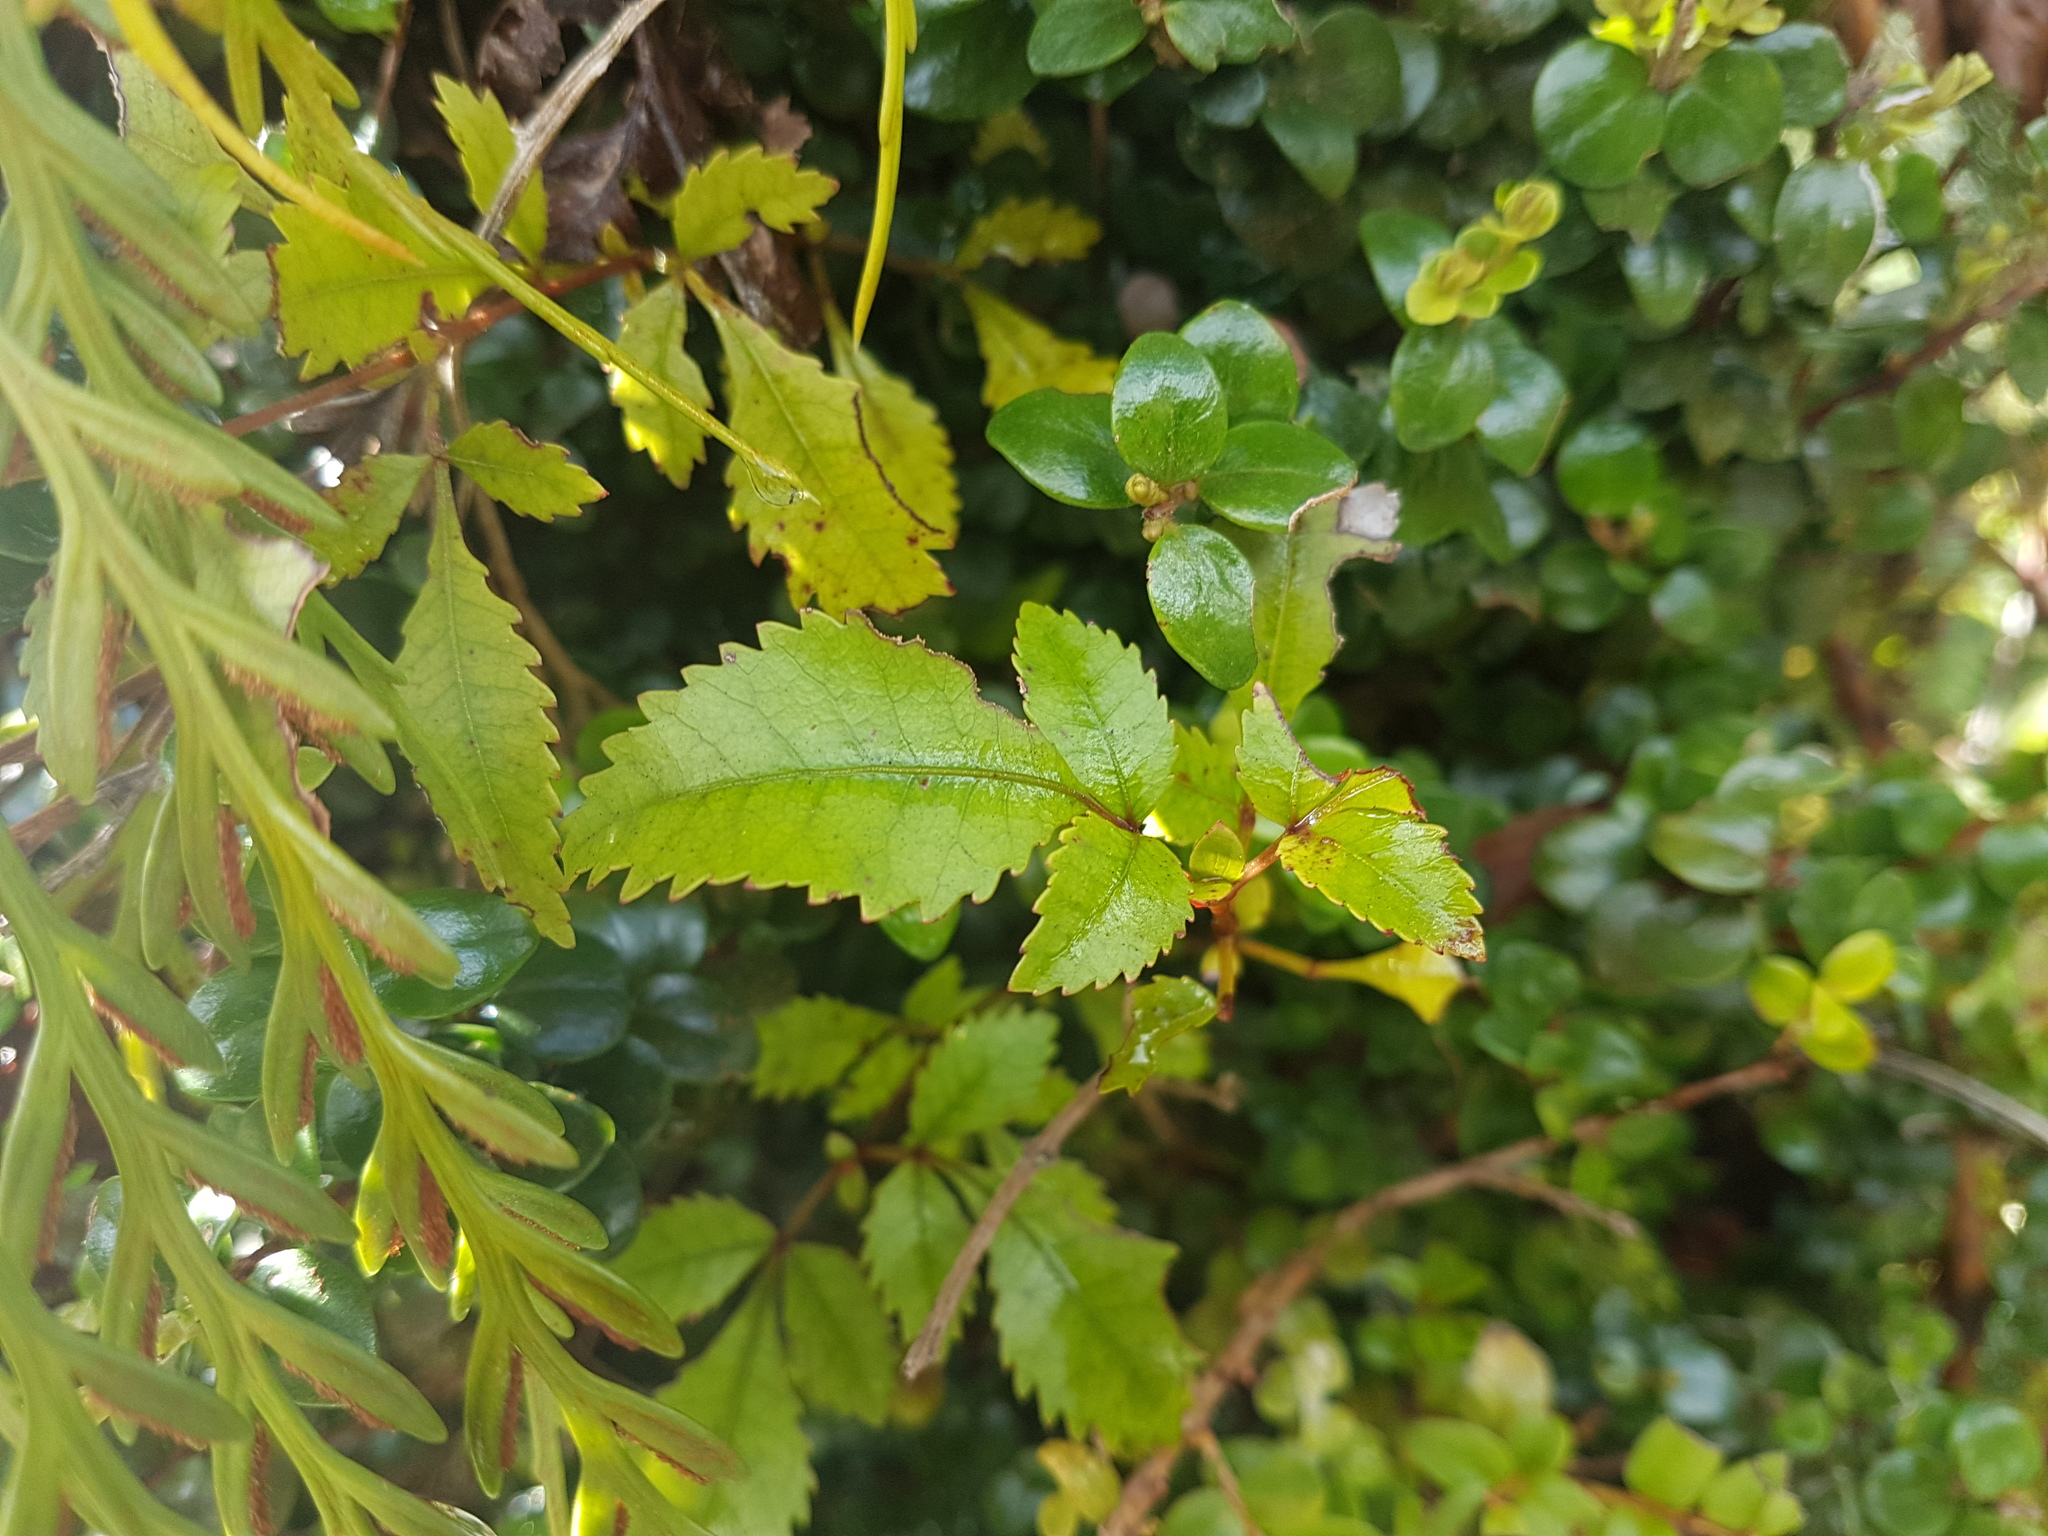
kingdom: Plantae
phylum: Tracheophyta
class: Magnoliopsida
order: Oxalidales
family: Cunoniaceae
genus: Pterophylla
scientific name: Pterophylla racemosa
